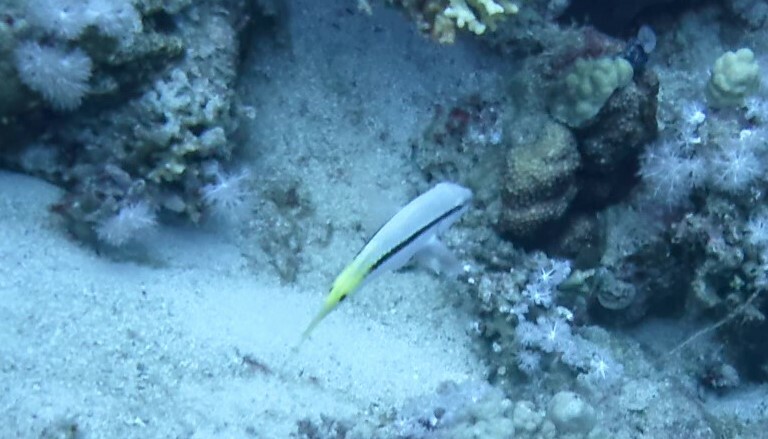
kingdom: Animalia
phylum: Chordata
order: Perciformes
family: Mullidae
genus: Parupeneus
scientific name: Parupeneus forsskali
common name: Red sea goatfish
